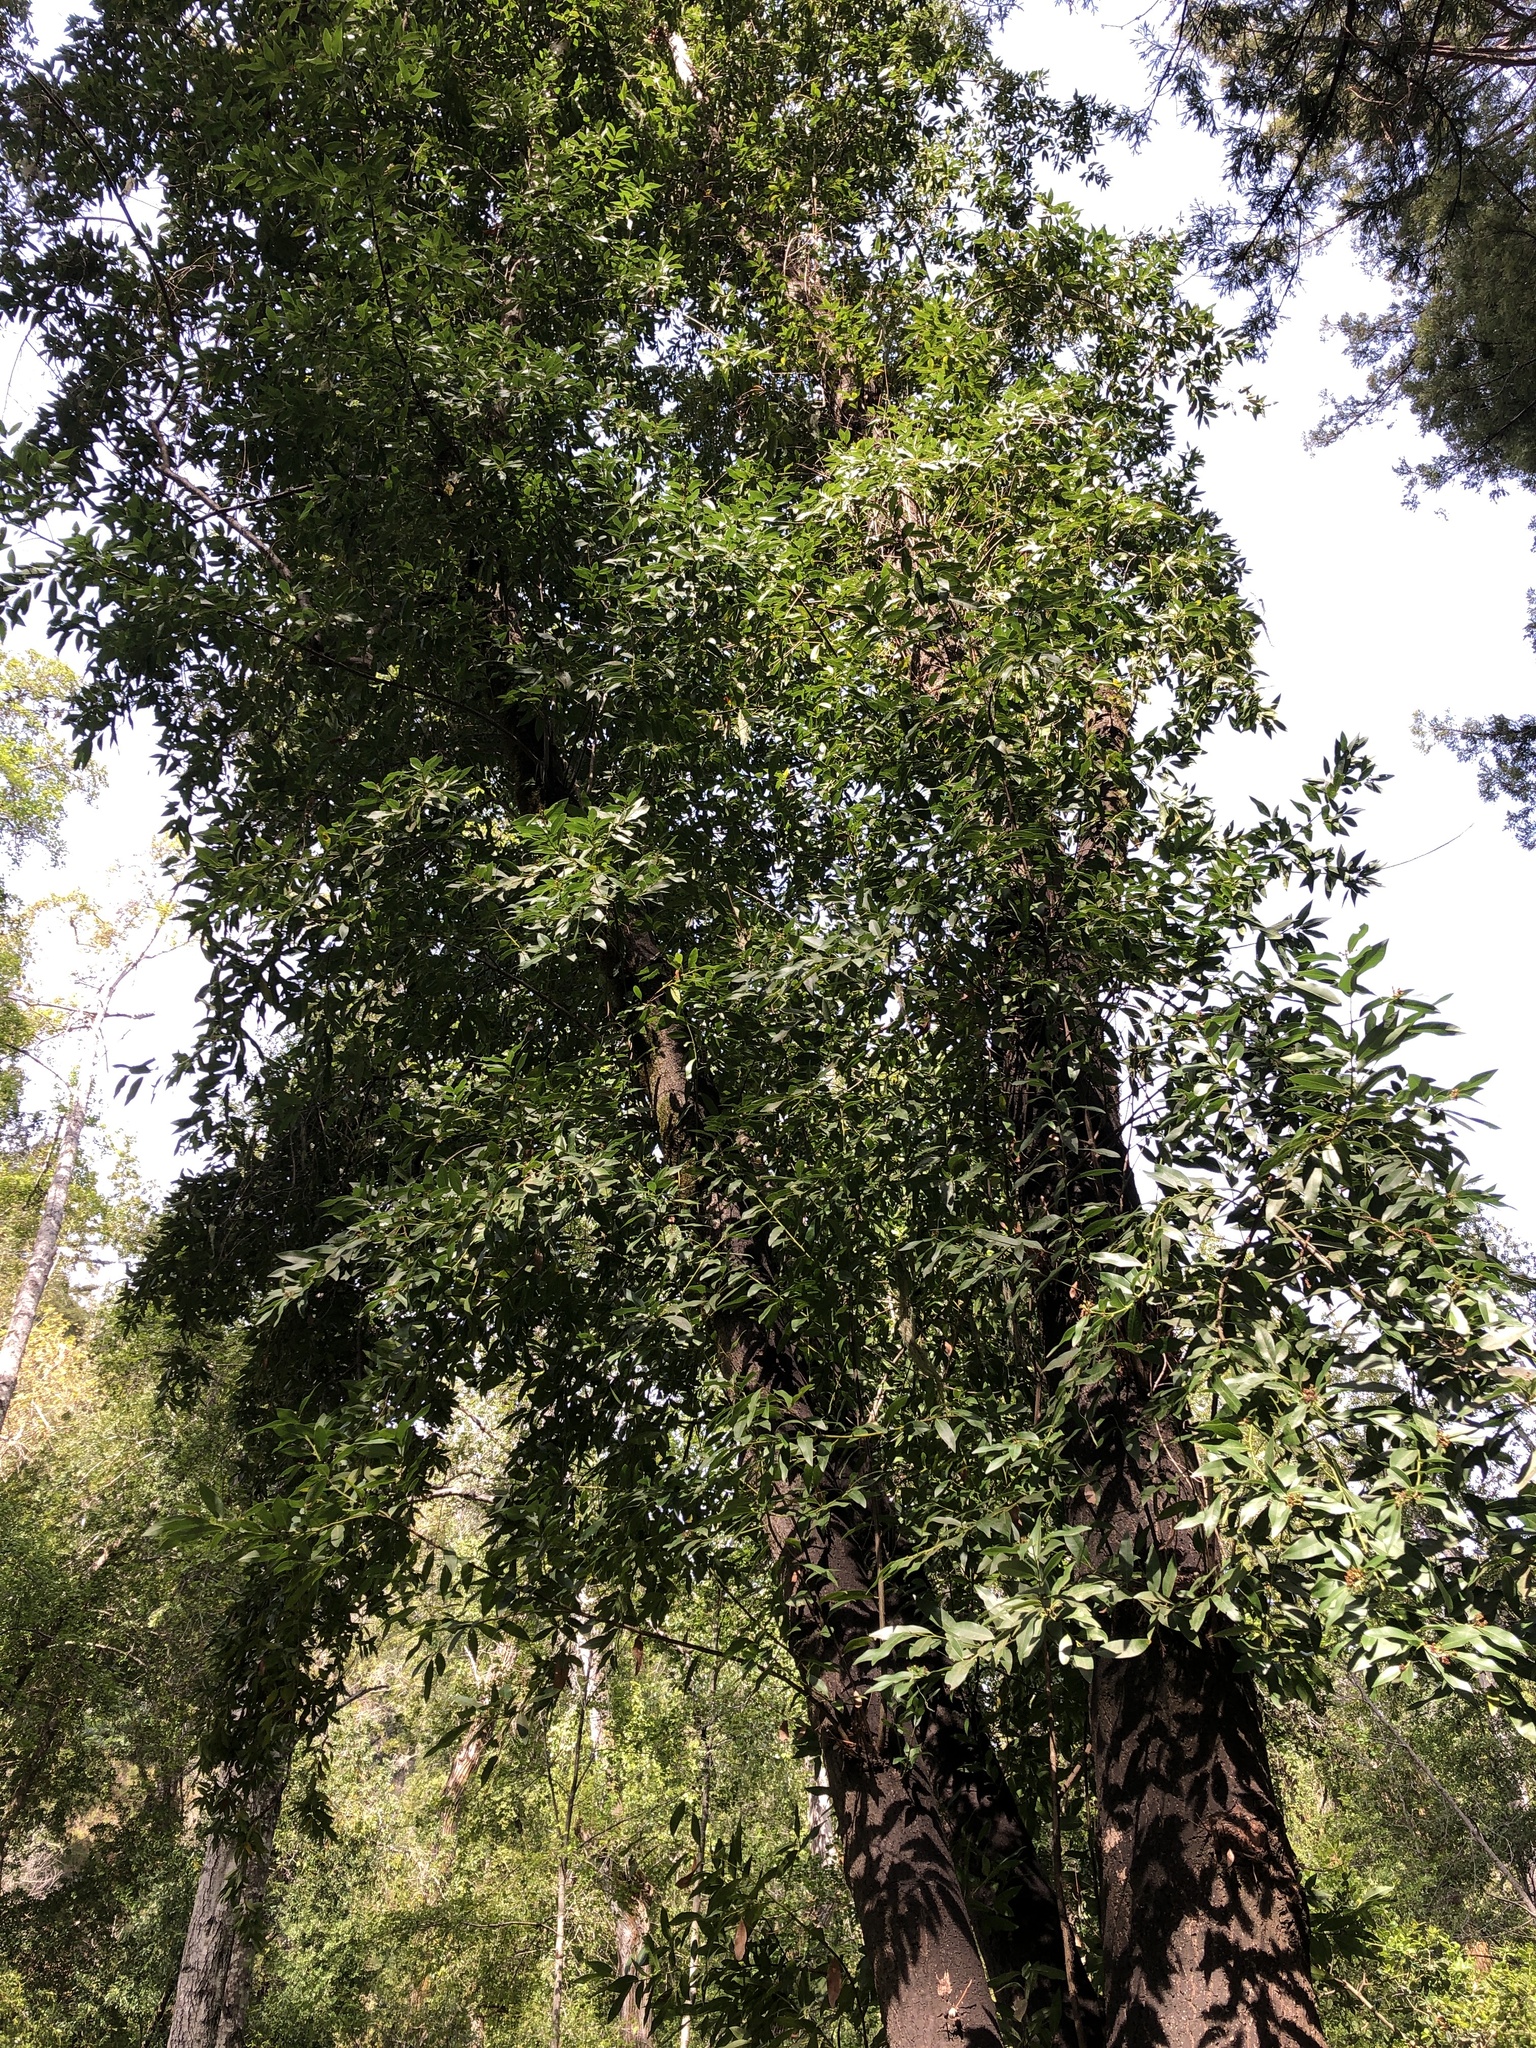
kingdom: Plantae
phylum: Tracheophyta
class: Magnoliopsida
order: Laurales
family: Lauraceae
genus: Umbellularia
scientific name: Umbellularia californica
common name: California bay
